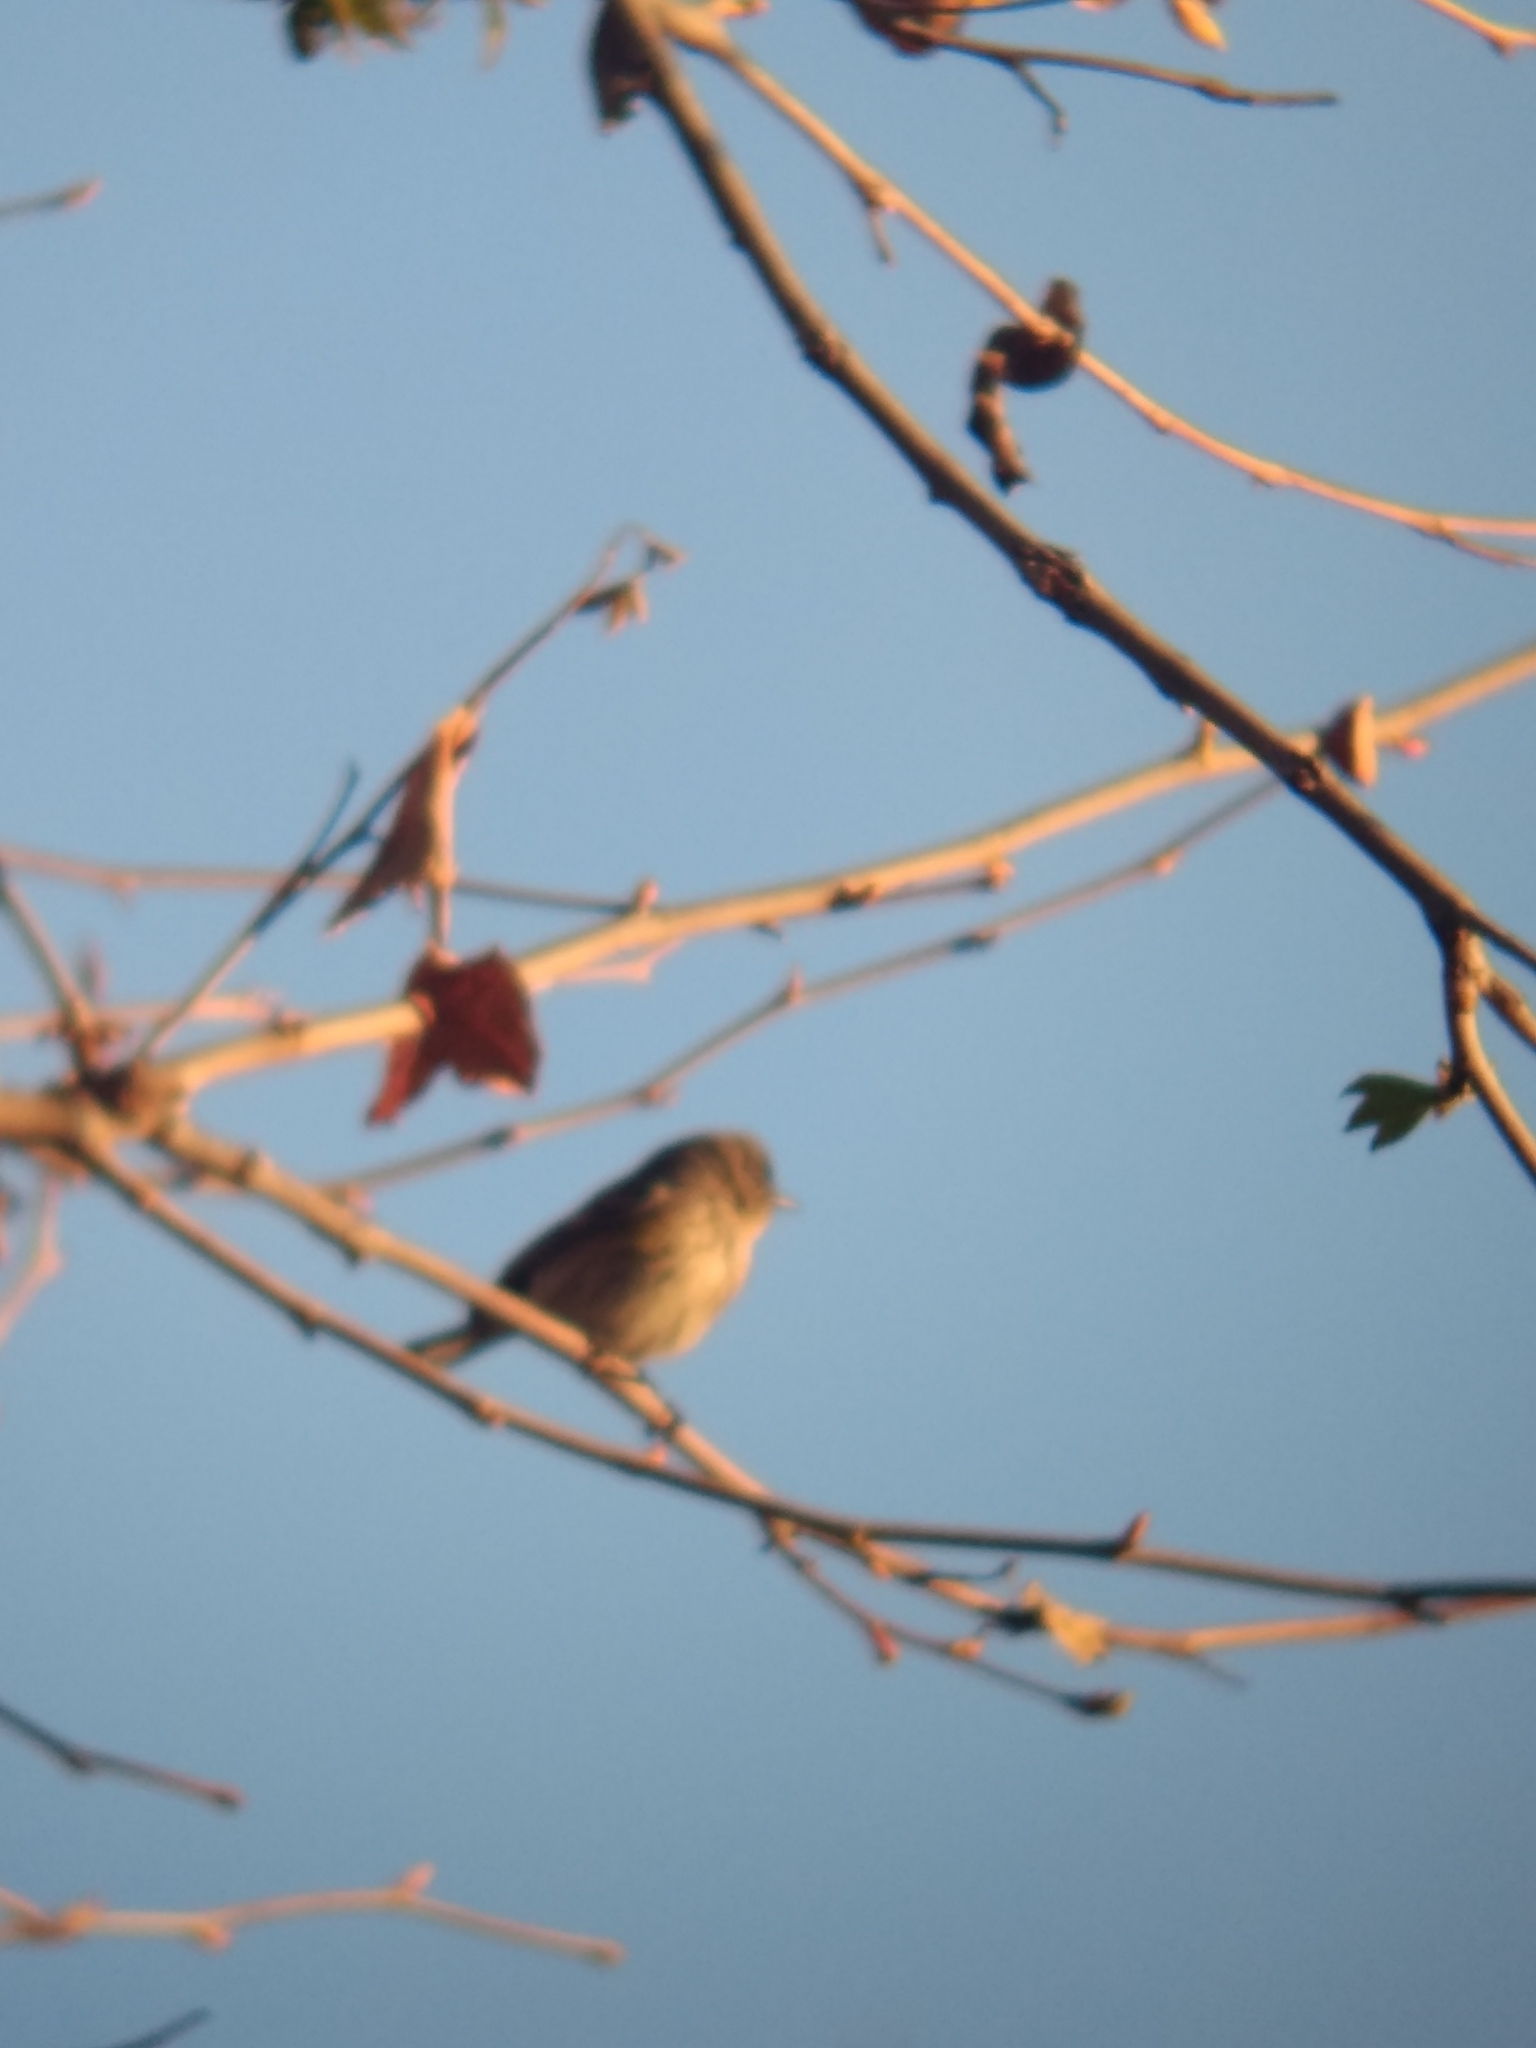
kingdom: Animalia
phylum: Chordata
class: Aves
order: Passeriformes
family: Parulidae
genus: Setophaga
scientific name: Setophaga coronata
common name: Myrtle warbler
